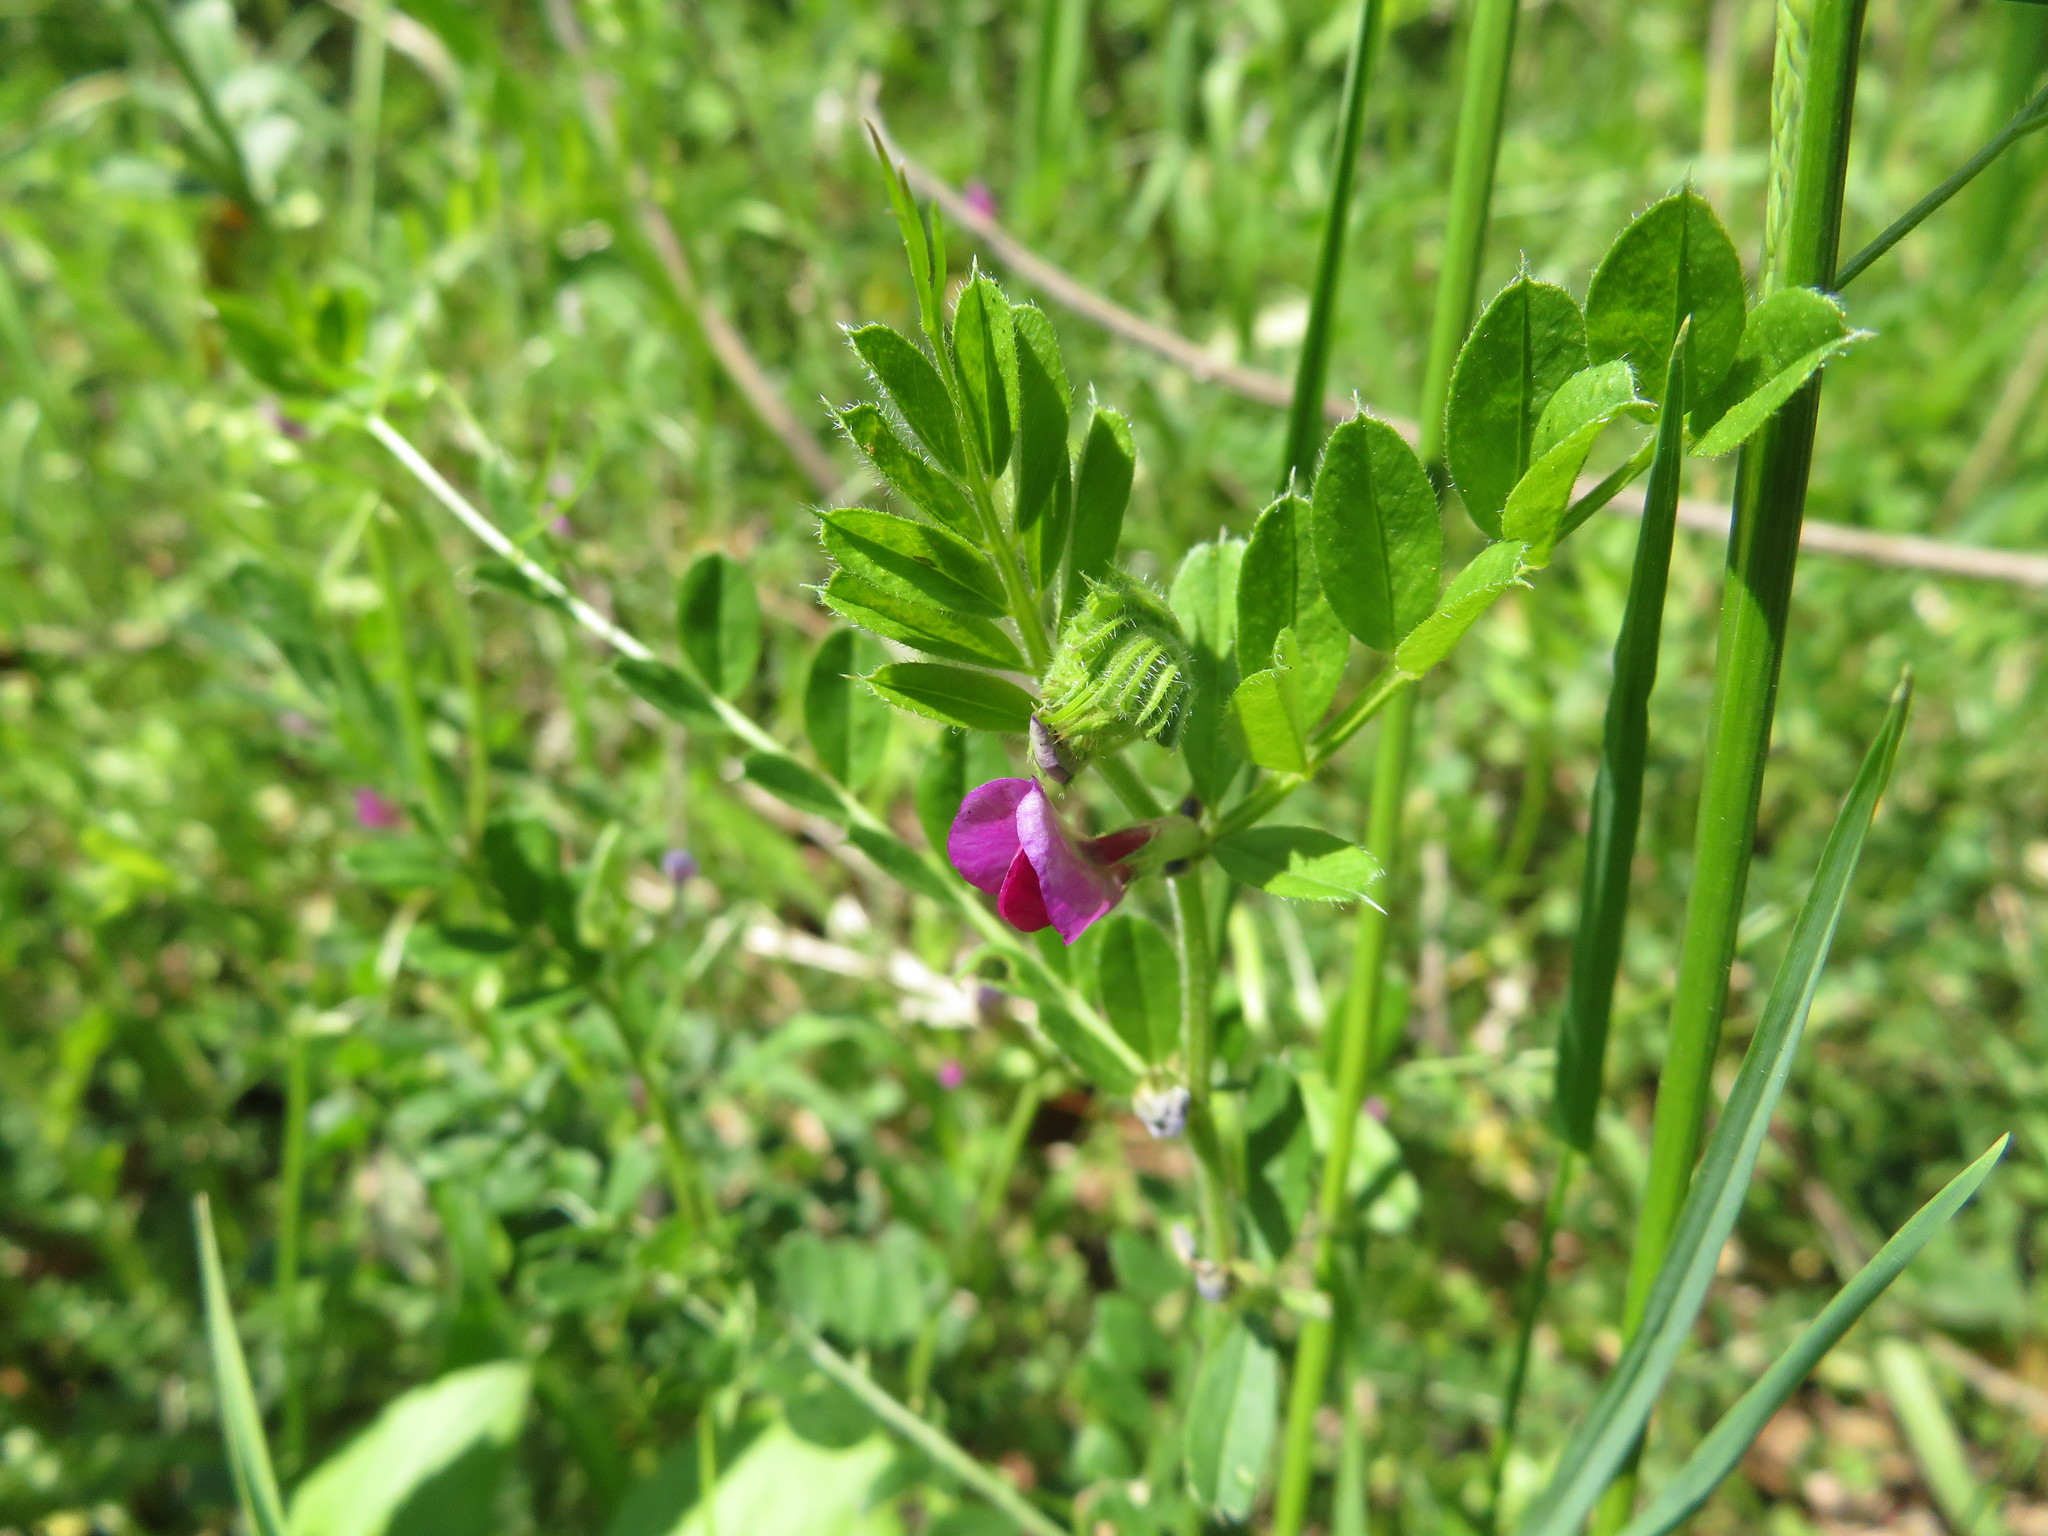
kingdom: Plantae
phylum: Tracheophyta
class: Magnoliopsida
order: Fabales
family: Fabaceae
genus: Vicia
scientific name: Vicia sativa
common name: Garden vetch
